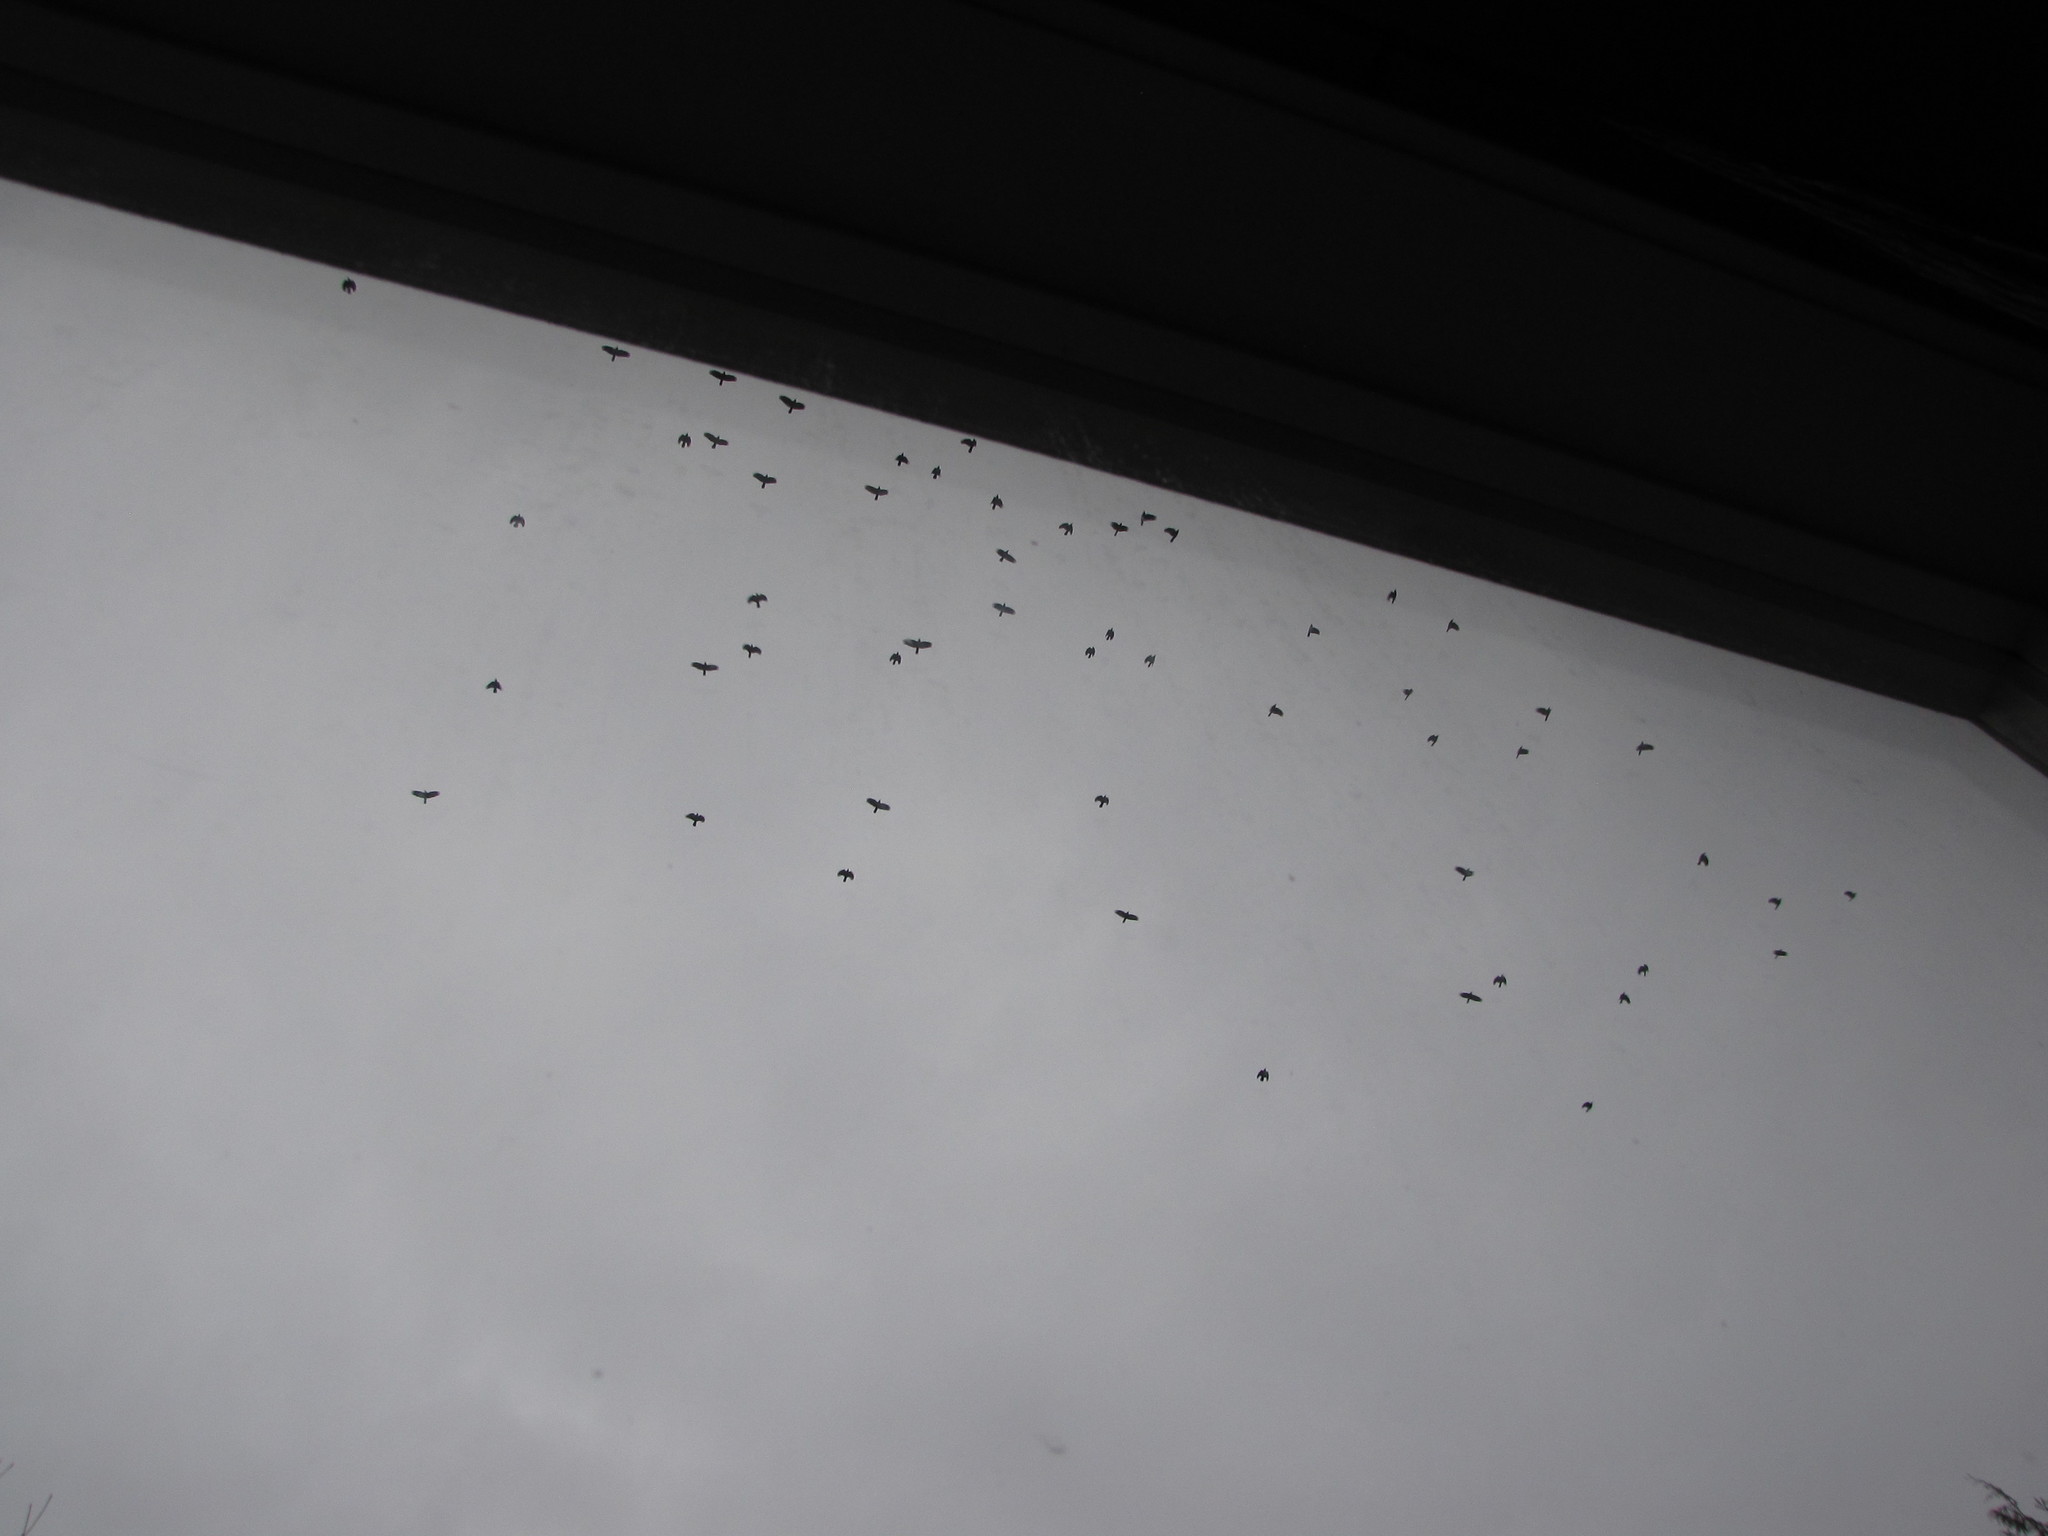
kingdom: Animalia
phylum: Chordata
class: Aves
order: Passeriformes
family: Corvidae
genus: Corvus
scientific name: Corvus brachyrhynchos
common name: American crow
